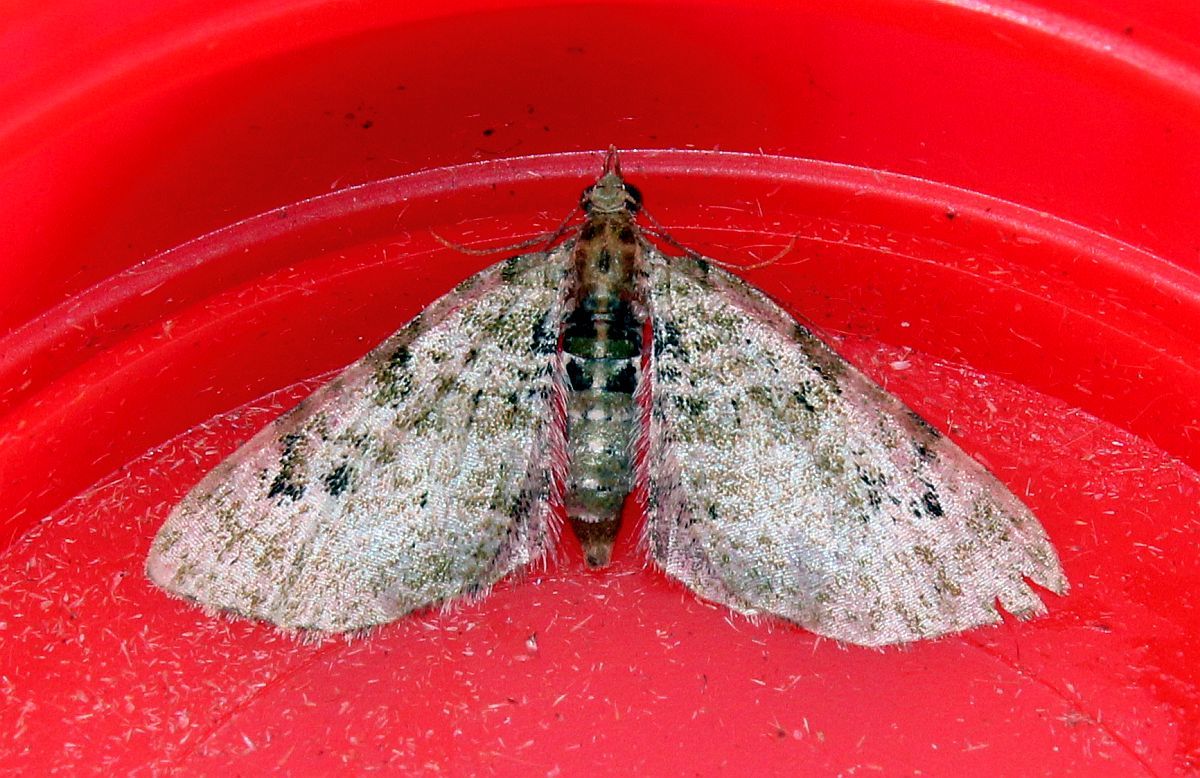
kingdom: Animalia
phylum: Arthropoda
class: Insecta
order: Lepidoptera
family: Geometridae
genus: Chloroclystis
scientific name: Chloroclystis v-ata
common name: V-pug
